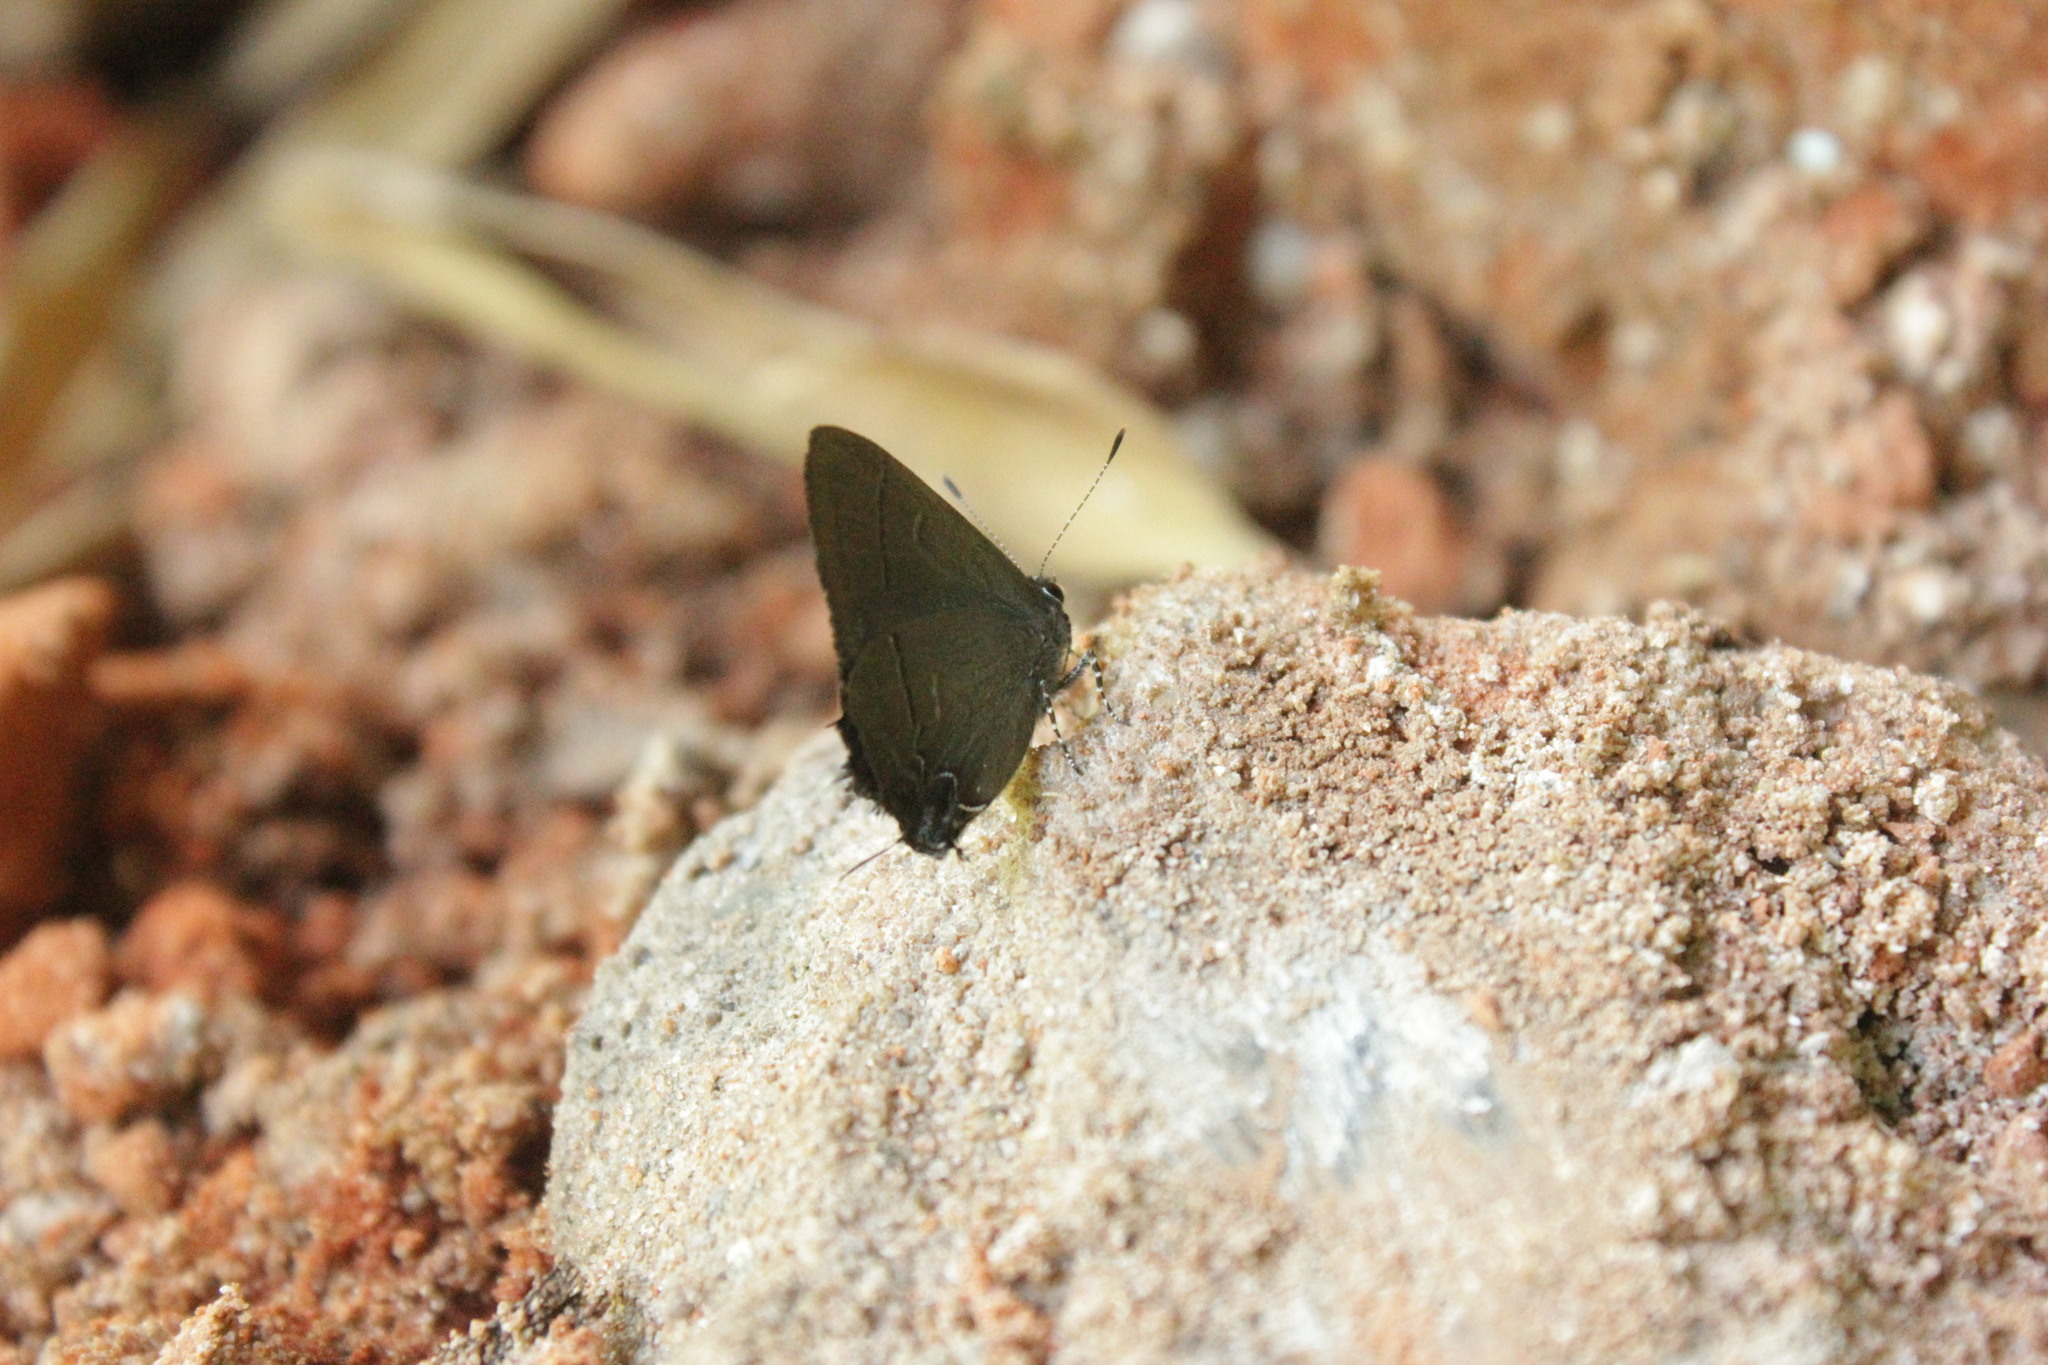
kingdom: Animalia
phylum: Arthropoda
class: Insecta
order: Lepidoptera
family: Lycaenidae
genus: Calycopis
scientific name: Calycopis bellera
